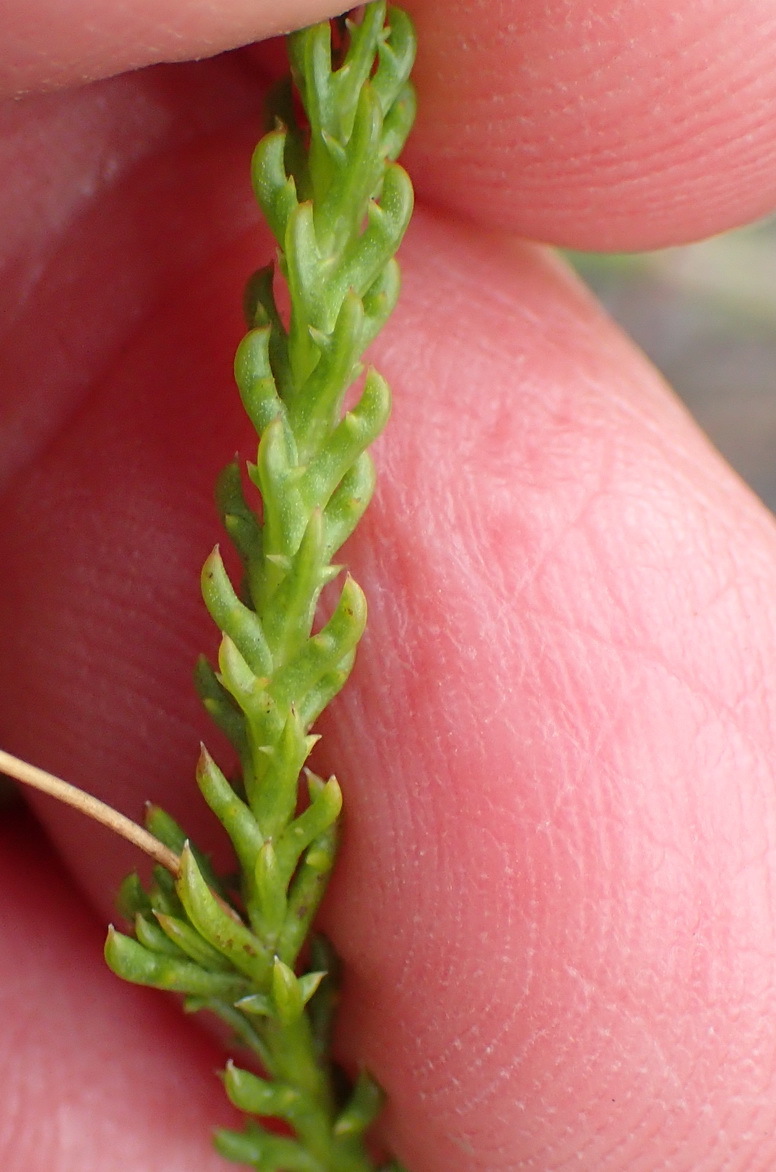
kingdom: Plantae
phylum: Tracheophyta
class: Magnoliopsida
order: Asterales
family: Asteraceae
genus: Euryops
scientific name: Euryops munitus
